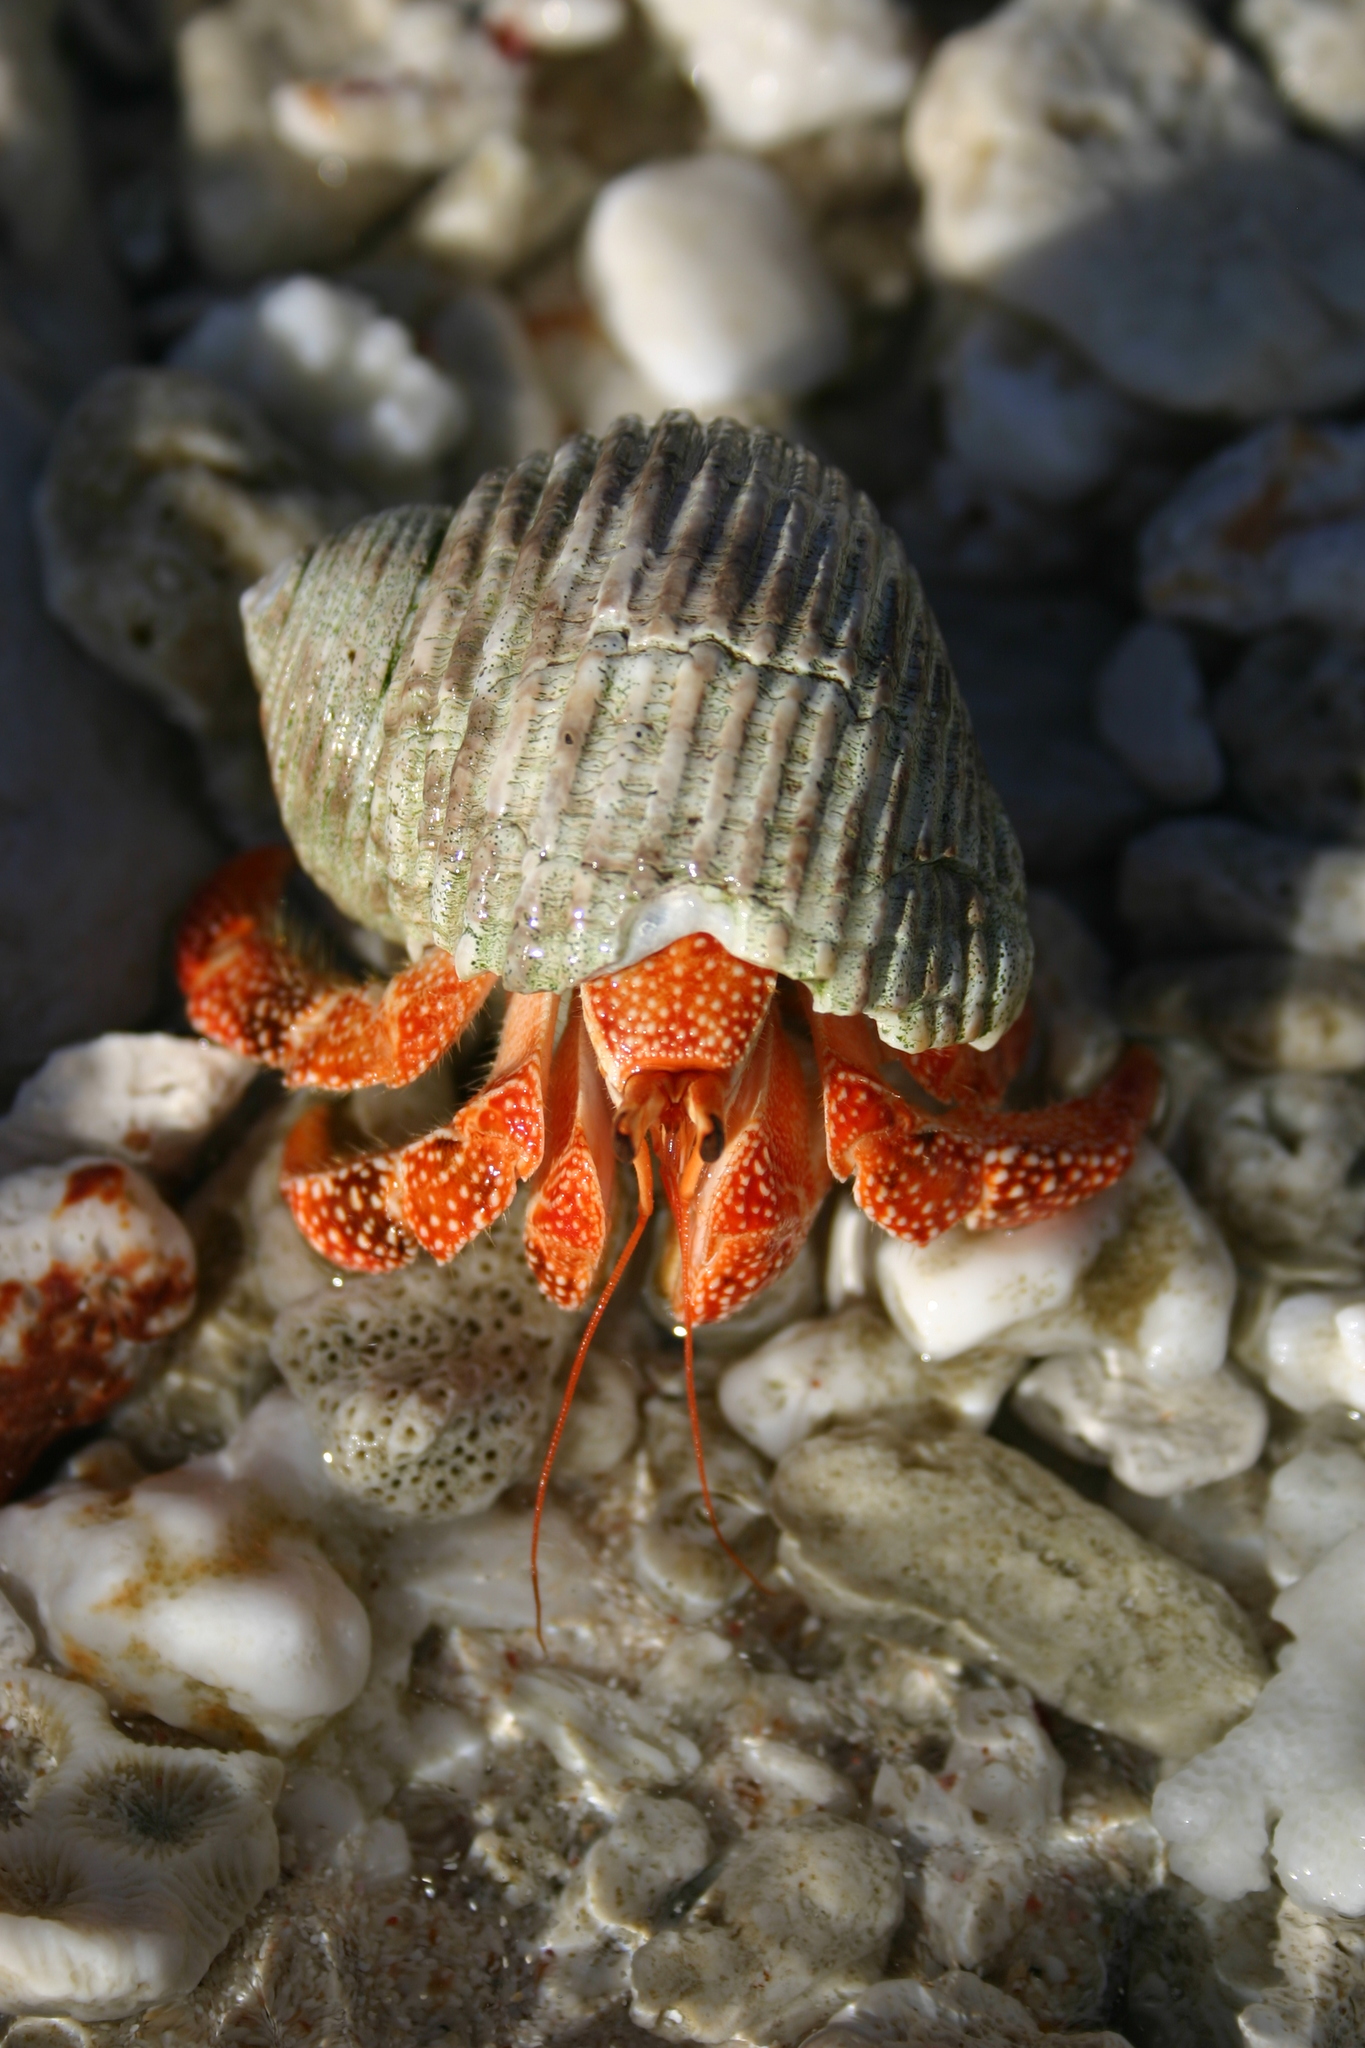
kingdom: Animalia
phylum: Arthropoda
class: Malacostraca
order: Decapoda
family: Coenobitidae
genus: Coenobita
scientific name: Coenobita perlatus
